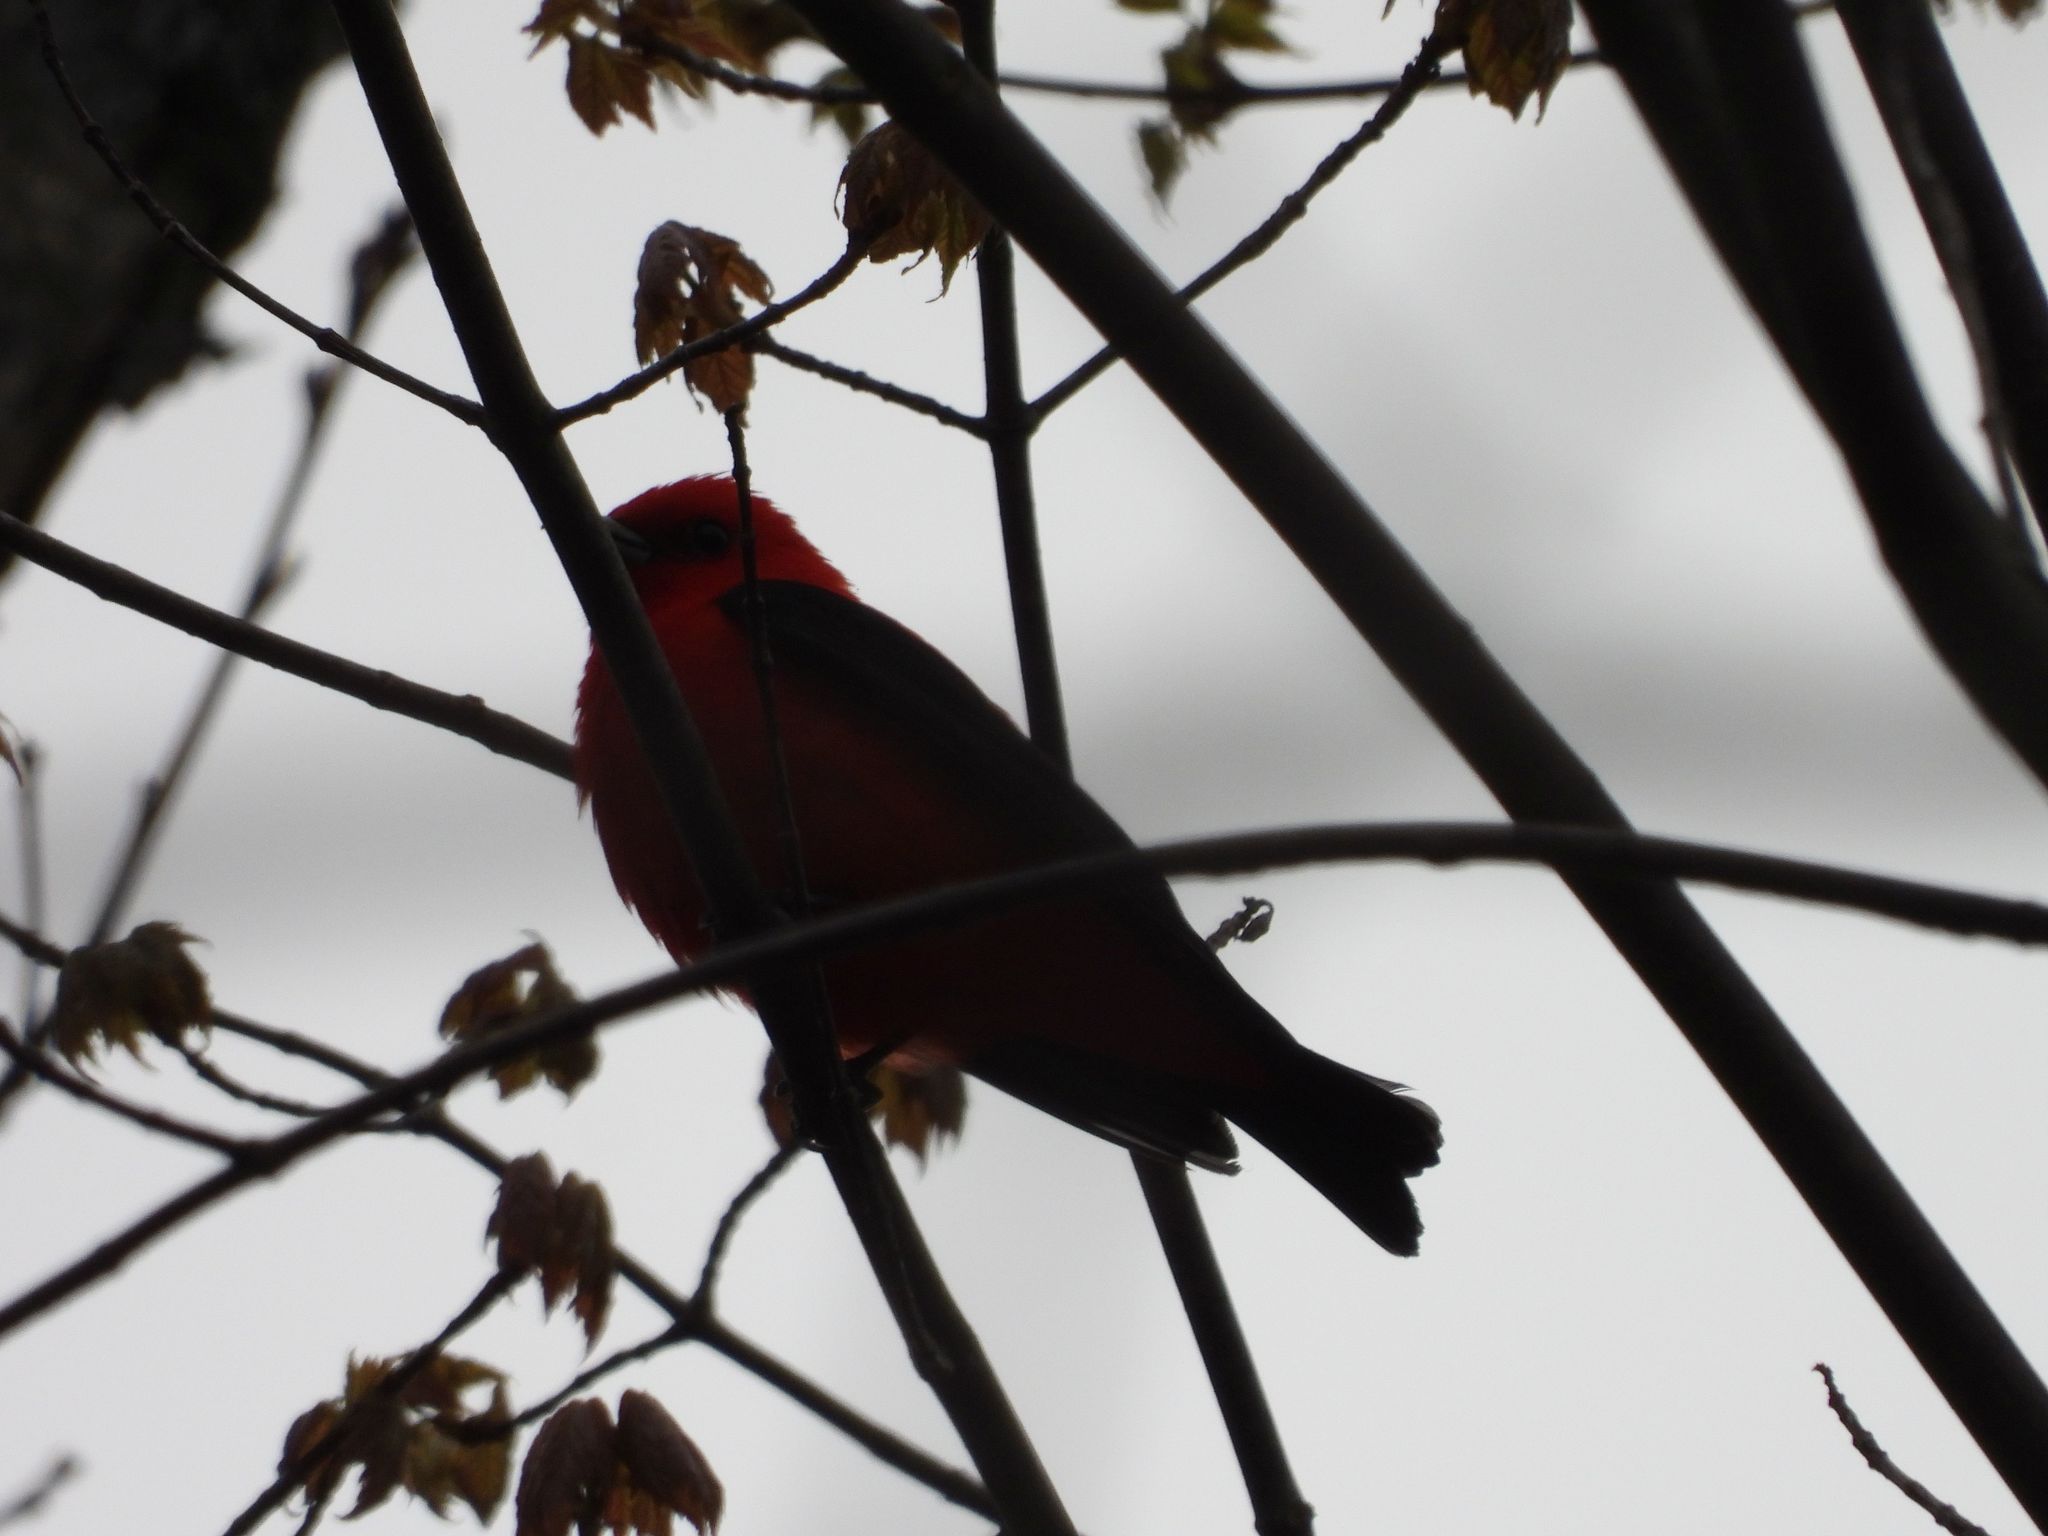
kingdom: Animalia
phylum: Chordata
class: Aves
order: Passeriformes
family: Cardinalidae
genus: Piranga
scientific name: Piranga olivacea
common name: Scarlet tanager
